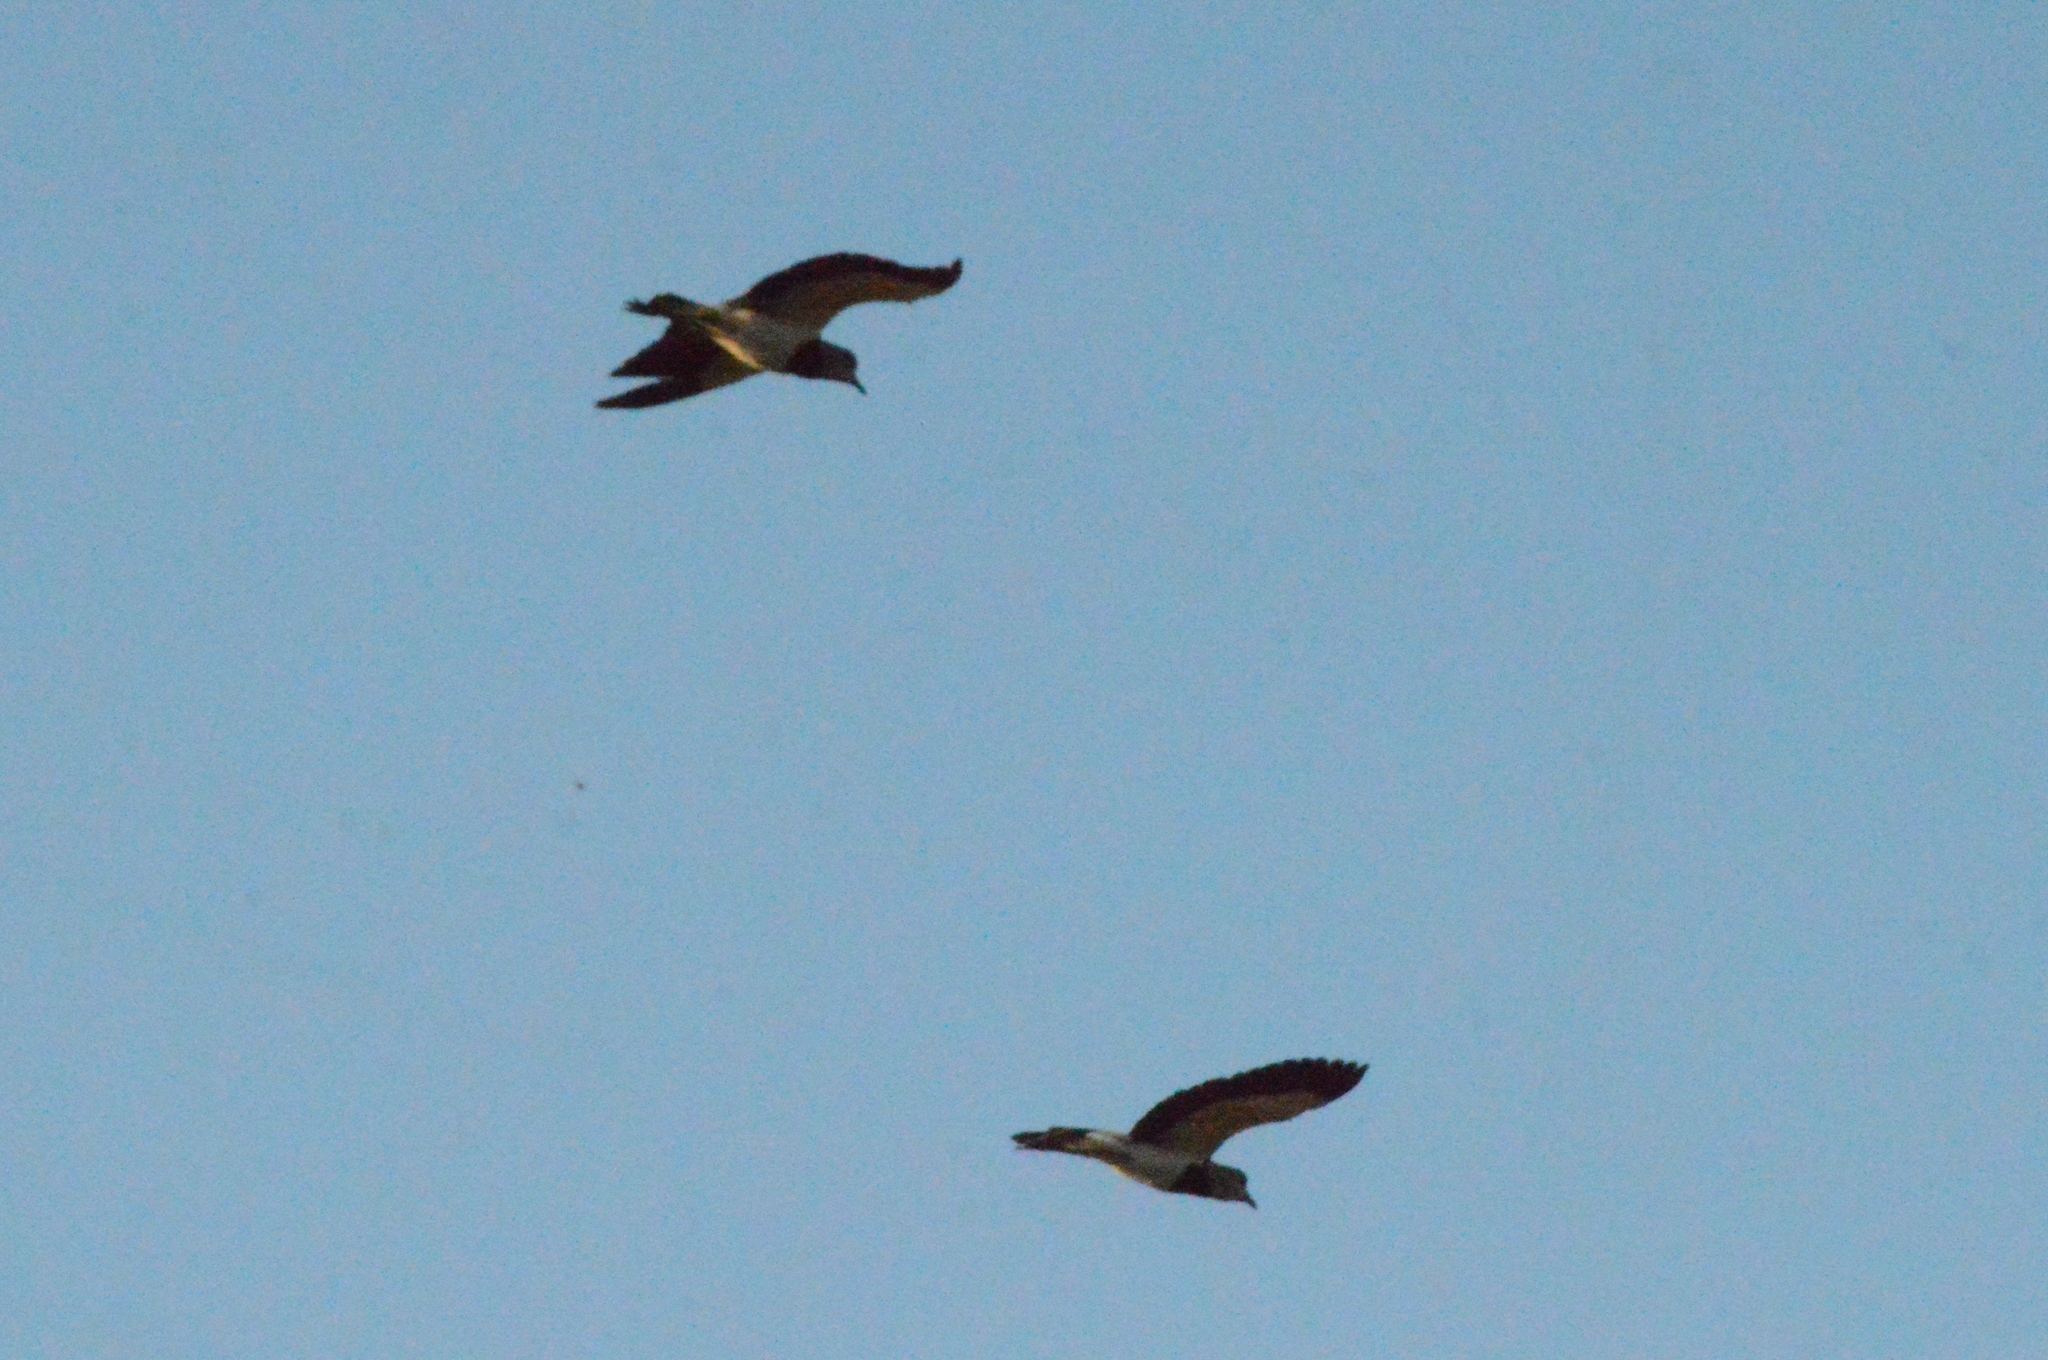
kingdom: Animalia
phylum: Chordata
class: Aves
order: Charadriiformes
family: Charadriidae
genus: Vanellus
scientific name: Vanellus chilensis
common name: Southern lapwing
